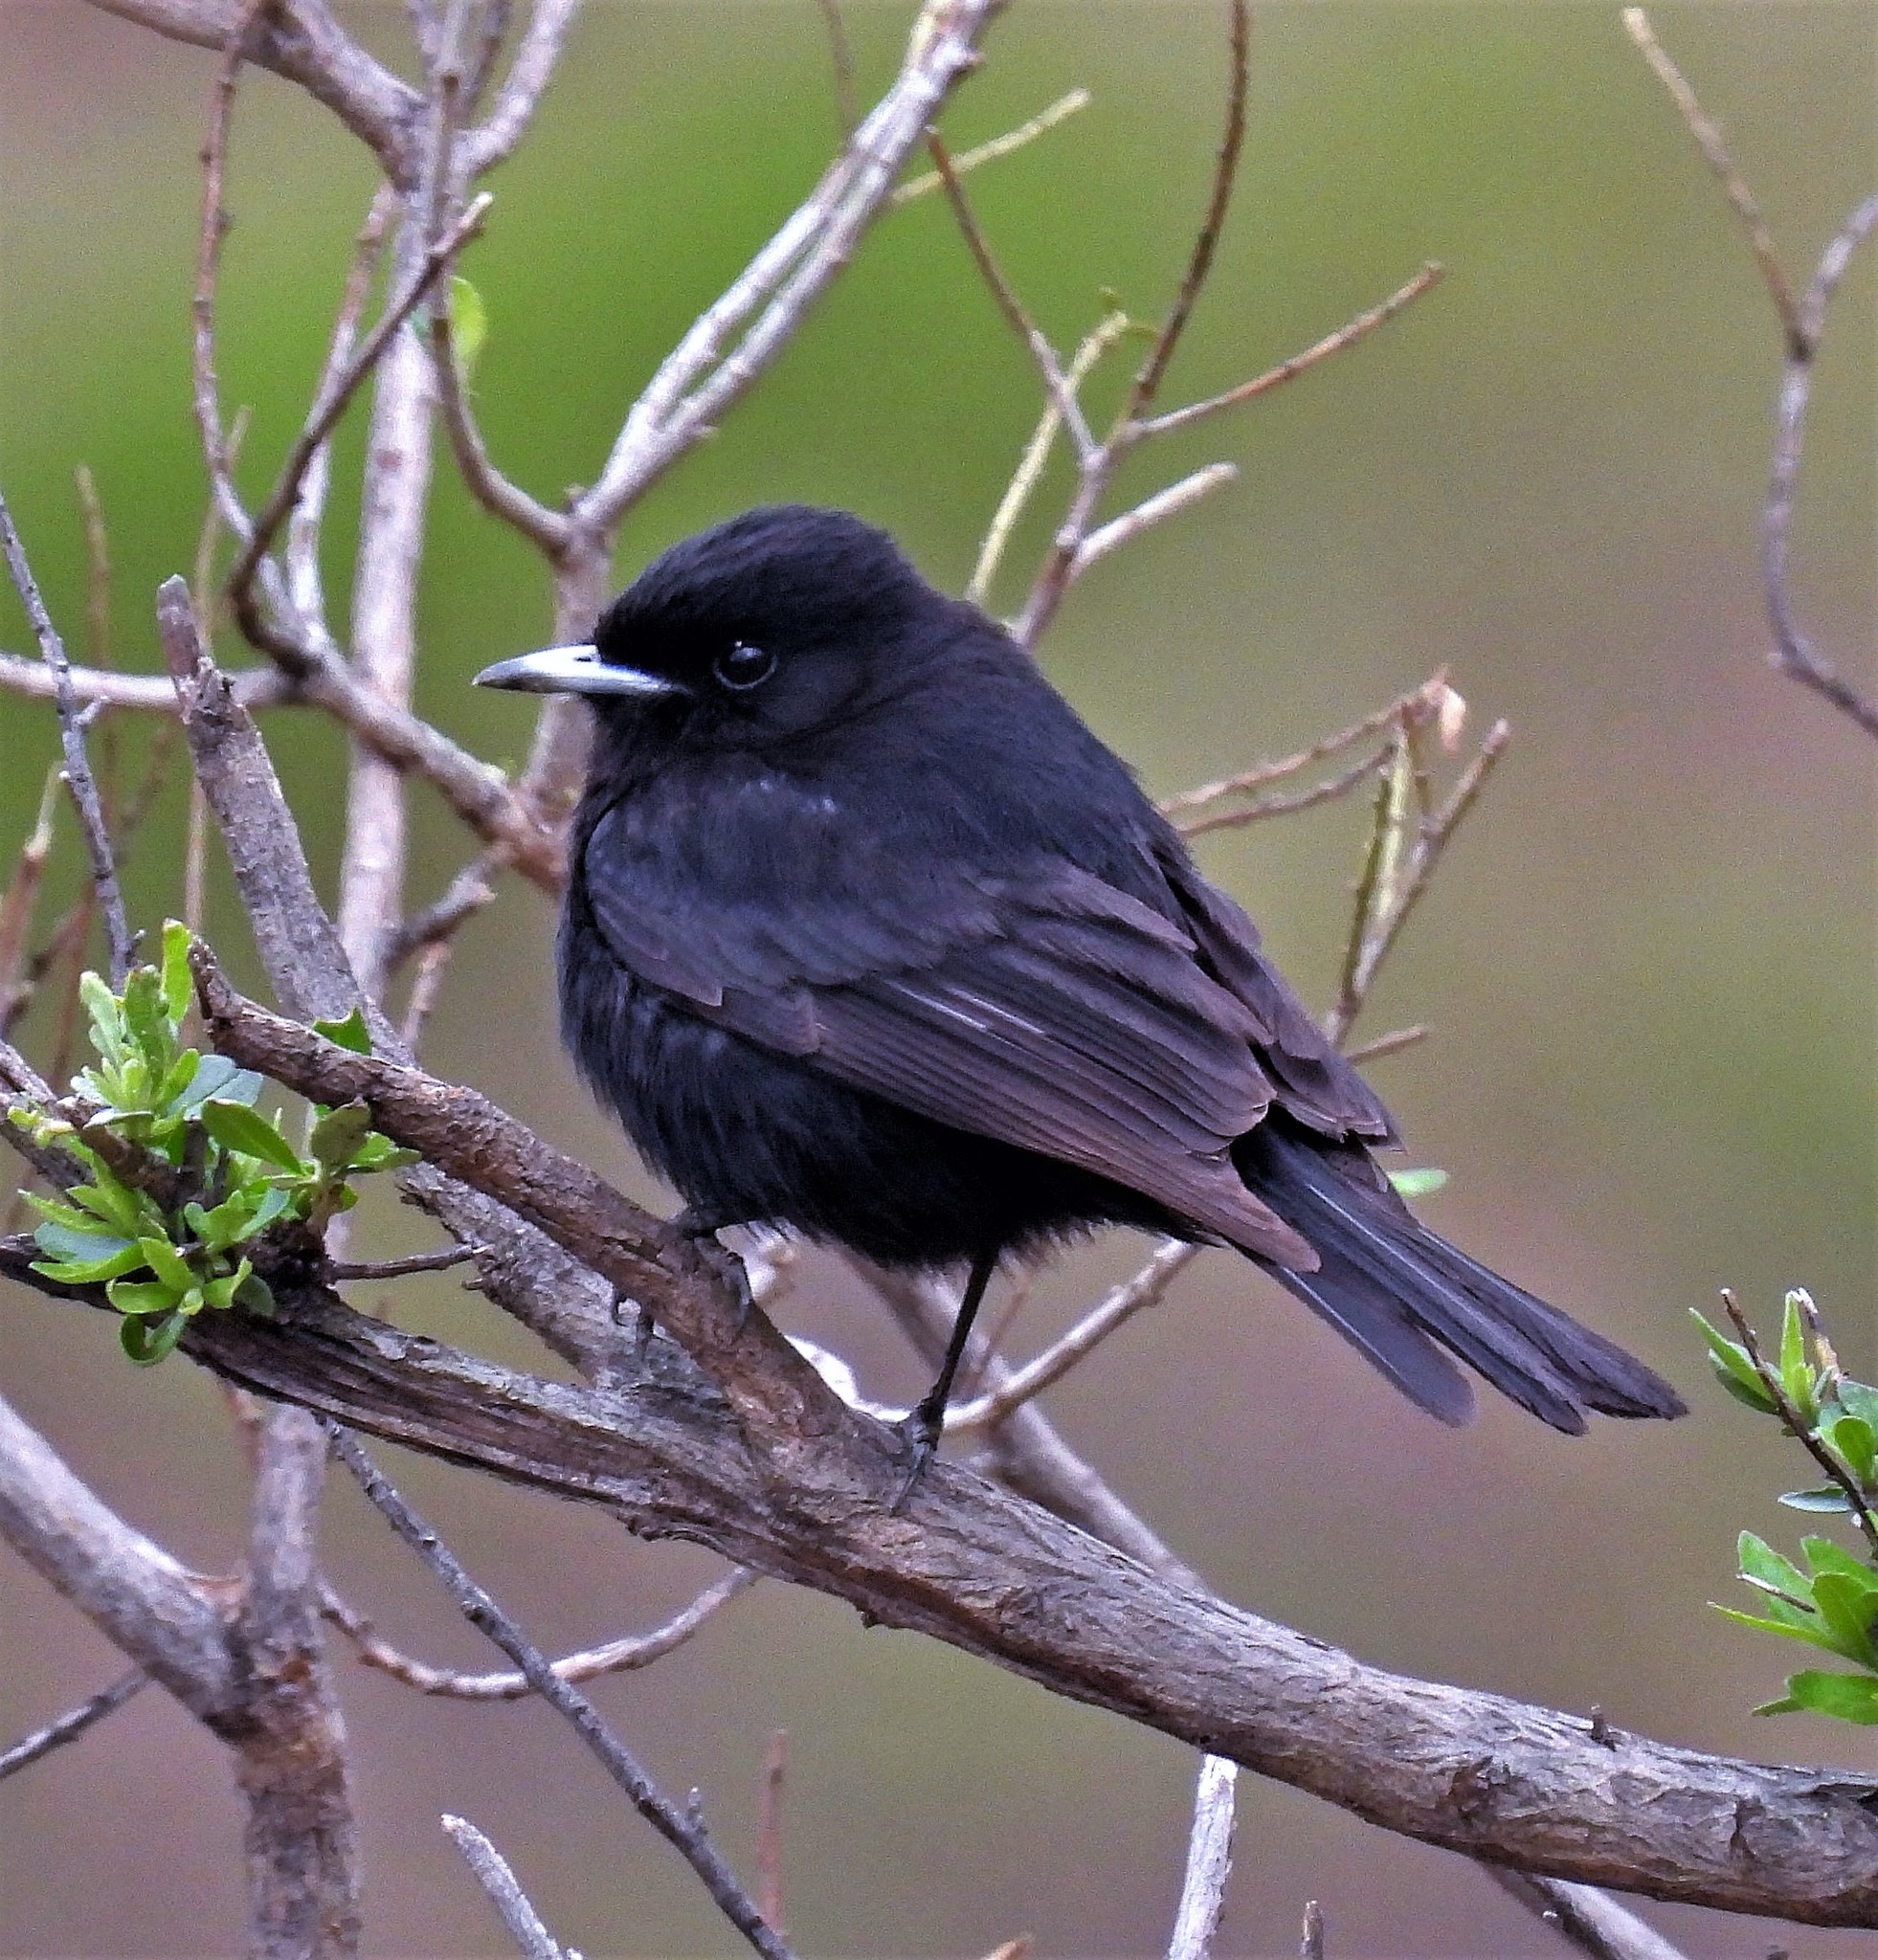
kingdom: Animalia
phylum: Chordata
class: Aves
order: Passeriformes
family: Tyrannidae
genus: Knipolegus
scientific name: Knipolegus aterrimus
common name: White-winged black tyrant
